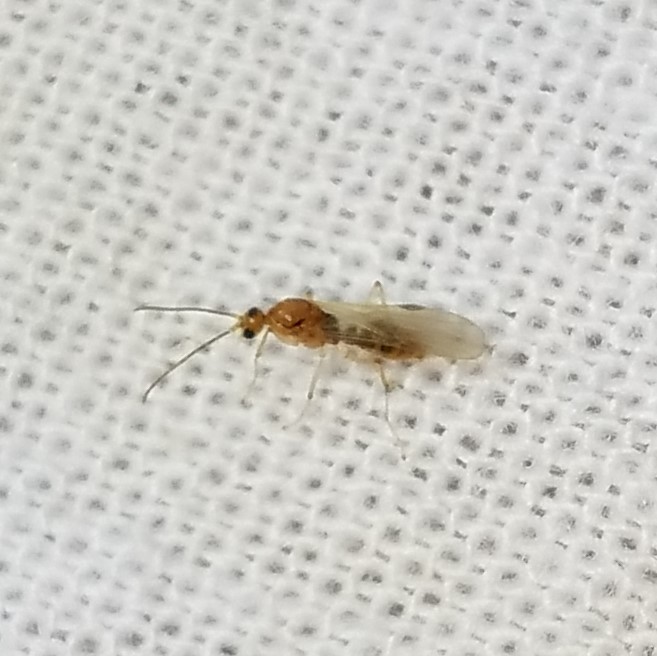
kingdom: Animalia
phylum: Arthropoda
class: Insecta
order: Hymenoptera
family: Formicidae
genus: Pachycondyla
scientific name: Pachycondyla chinensis
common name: Asian needle ant
